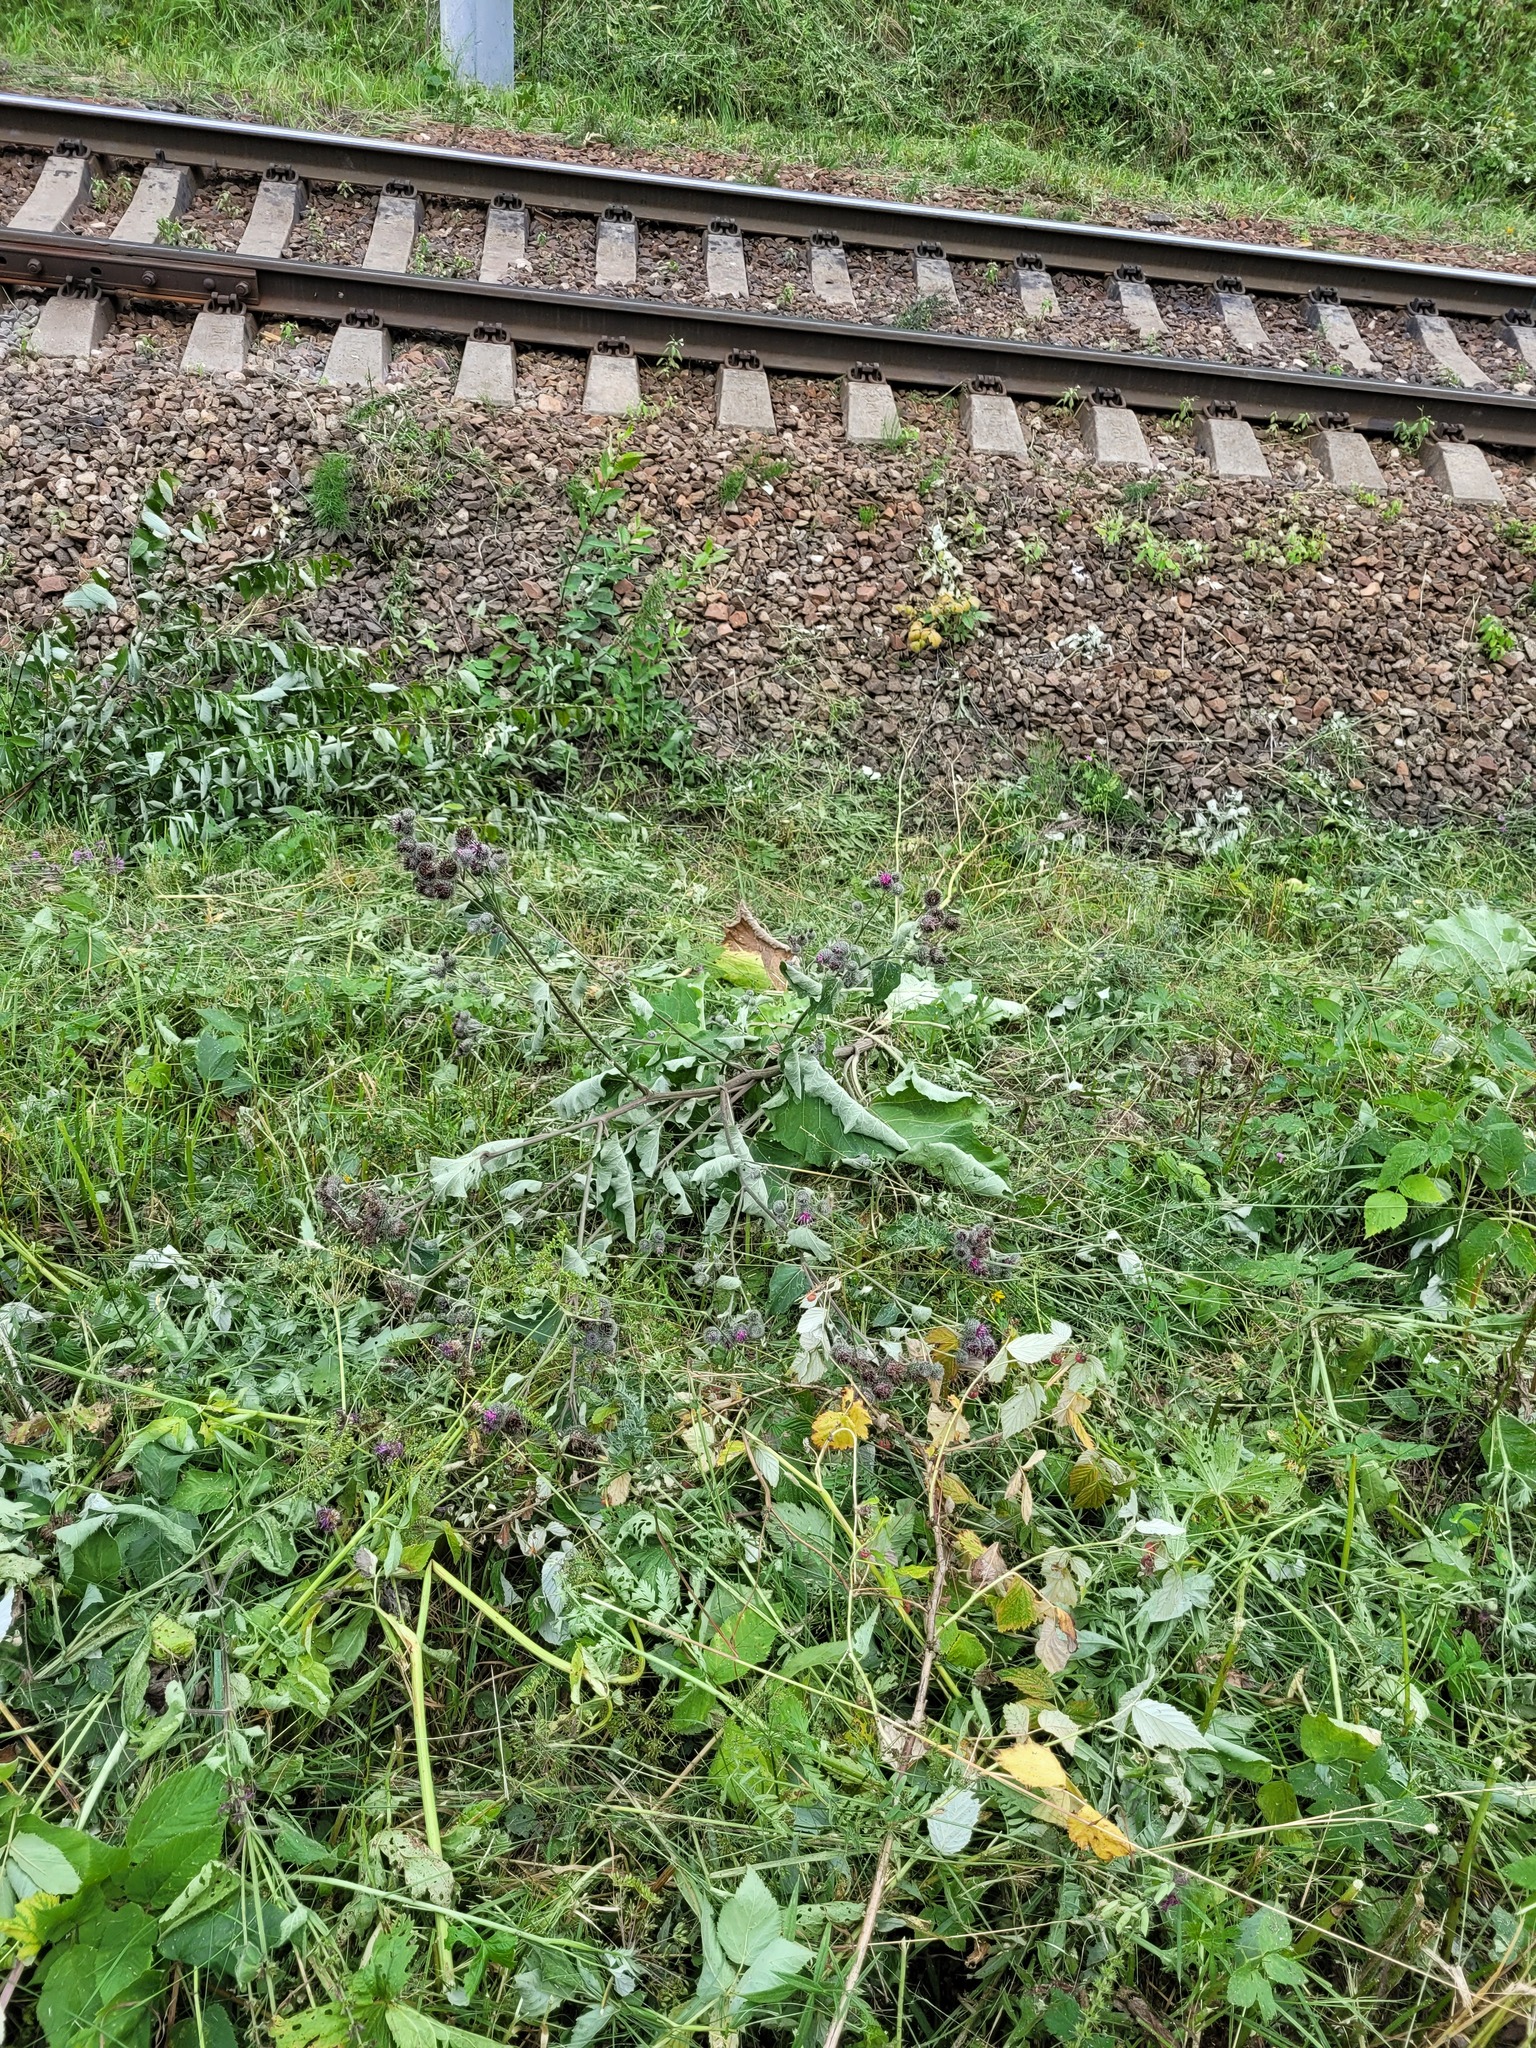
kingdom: Plantae
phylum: Tracheophyta
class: Magnoliopsida
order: Asterales
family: Asteraceae
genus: Arctium
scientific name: Arctium tomentosum
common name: Woolly burdock
